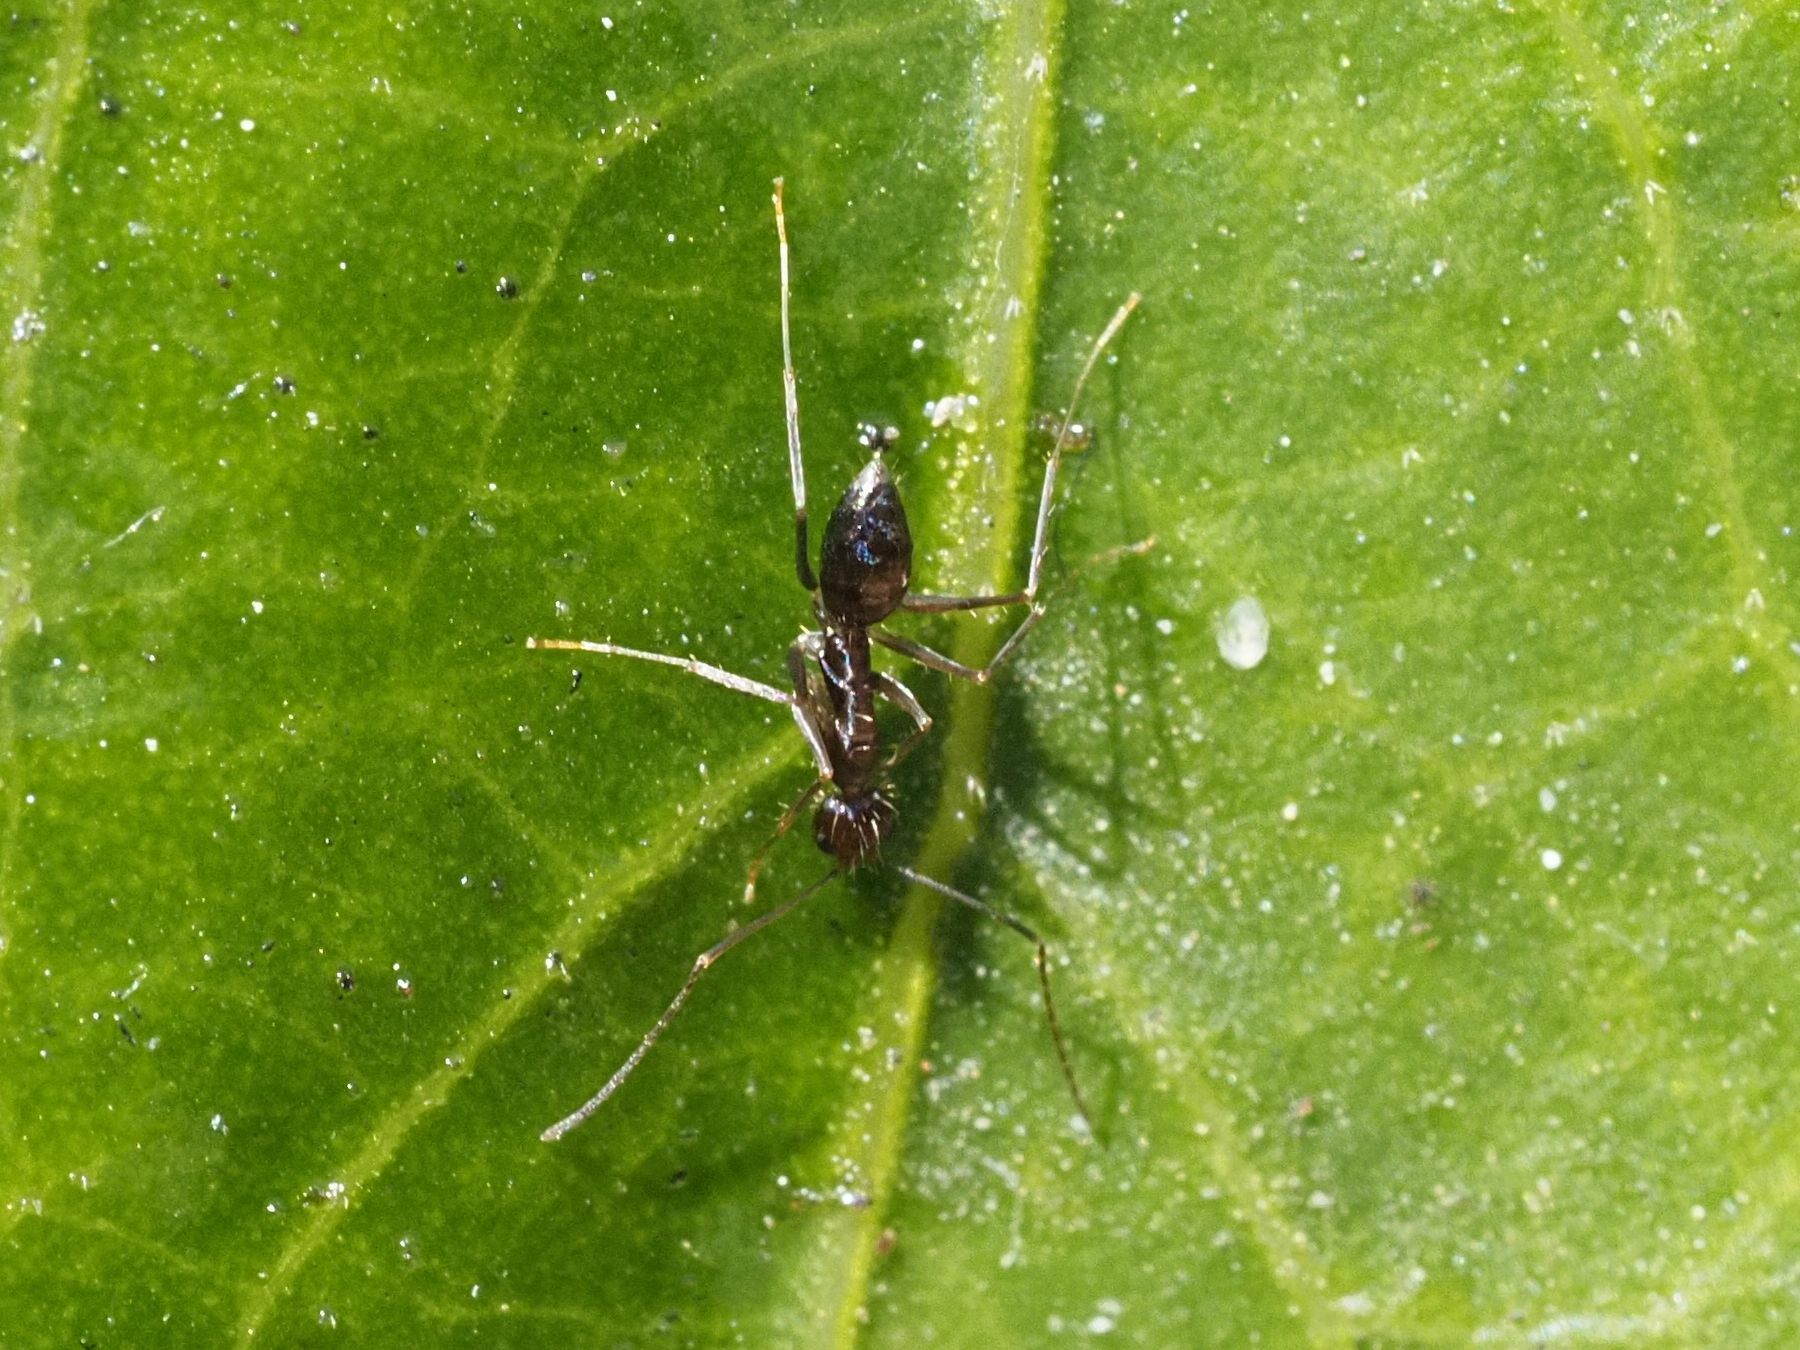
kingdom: Animalia
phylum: Arthropoda
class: Insecta
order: Hymenoptera
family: Formicidae
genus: Paratrechina
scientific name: Paratrechina longicornis
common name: Longhorned crazy ant
